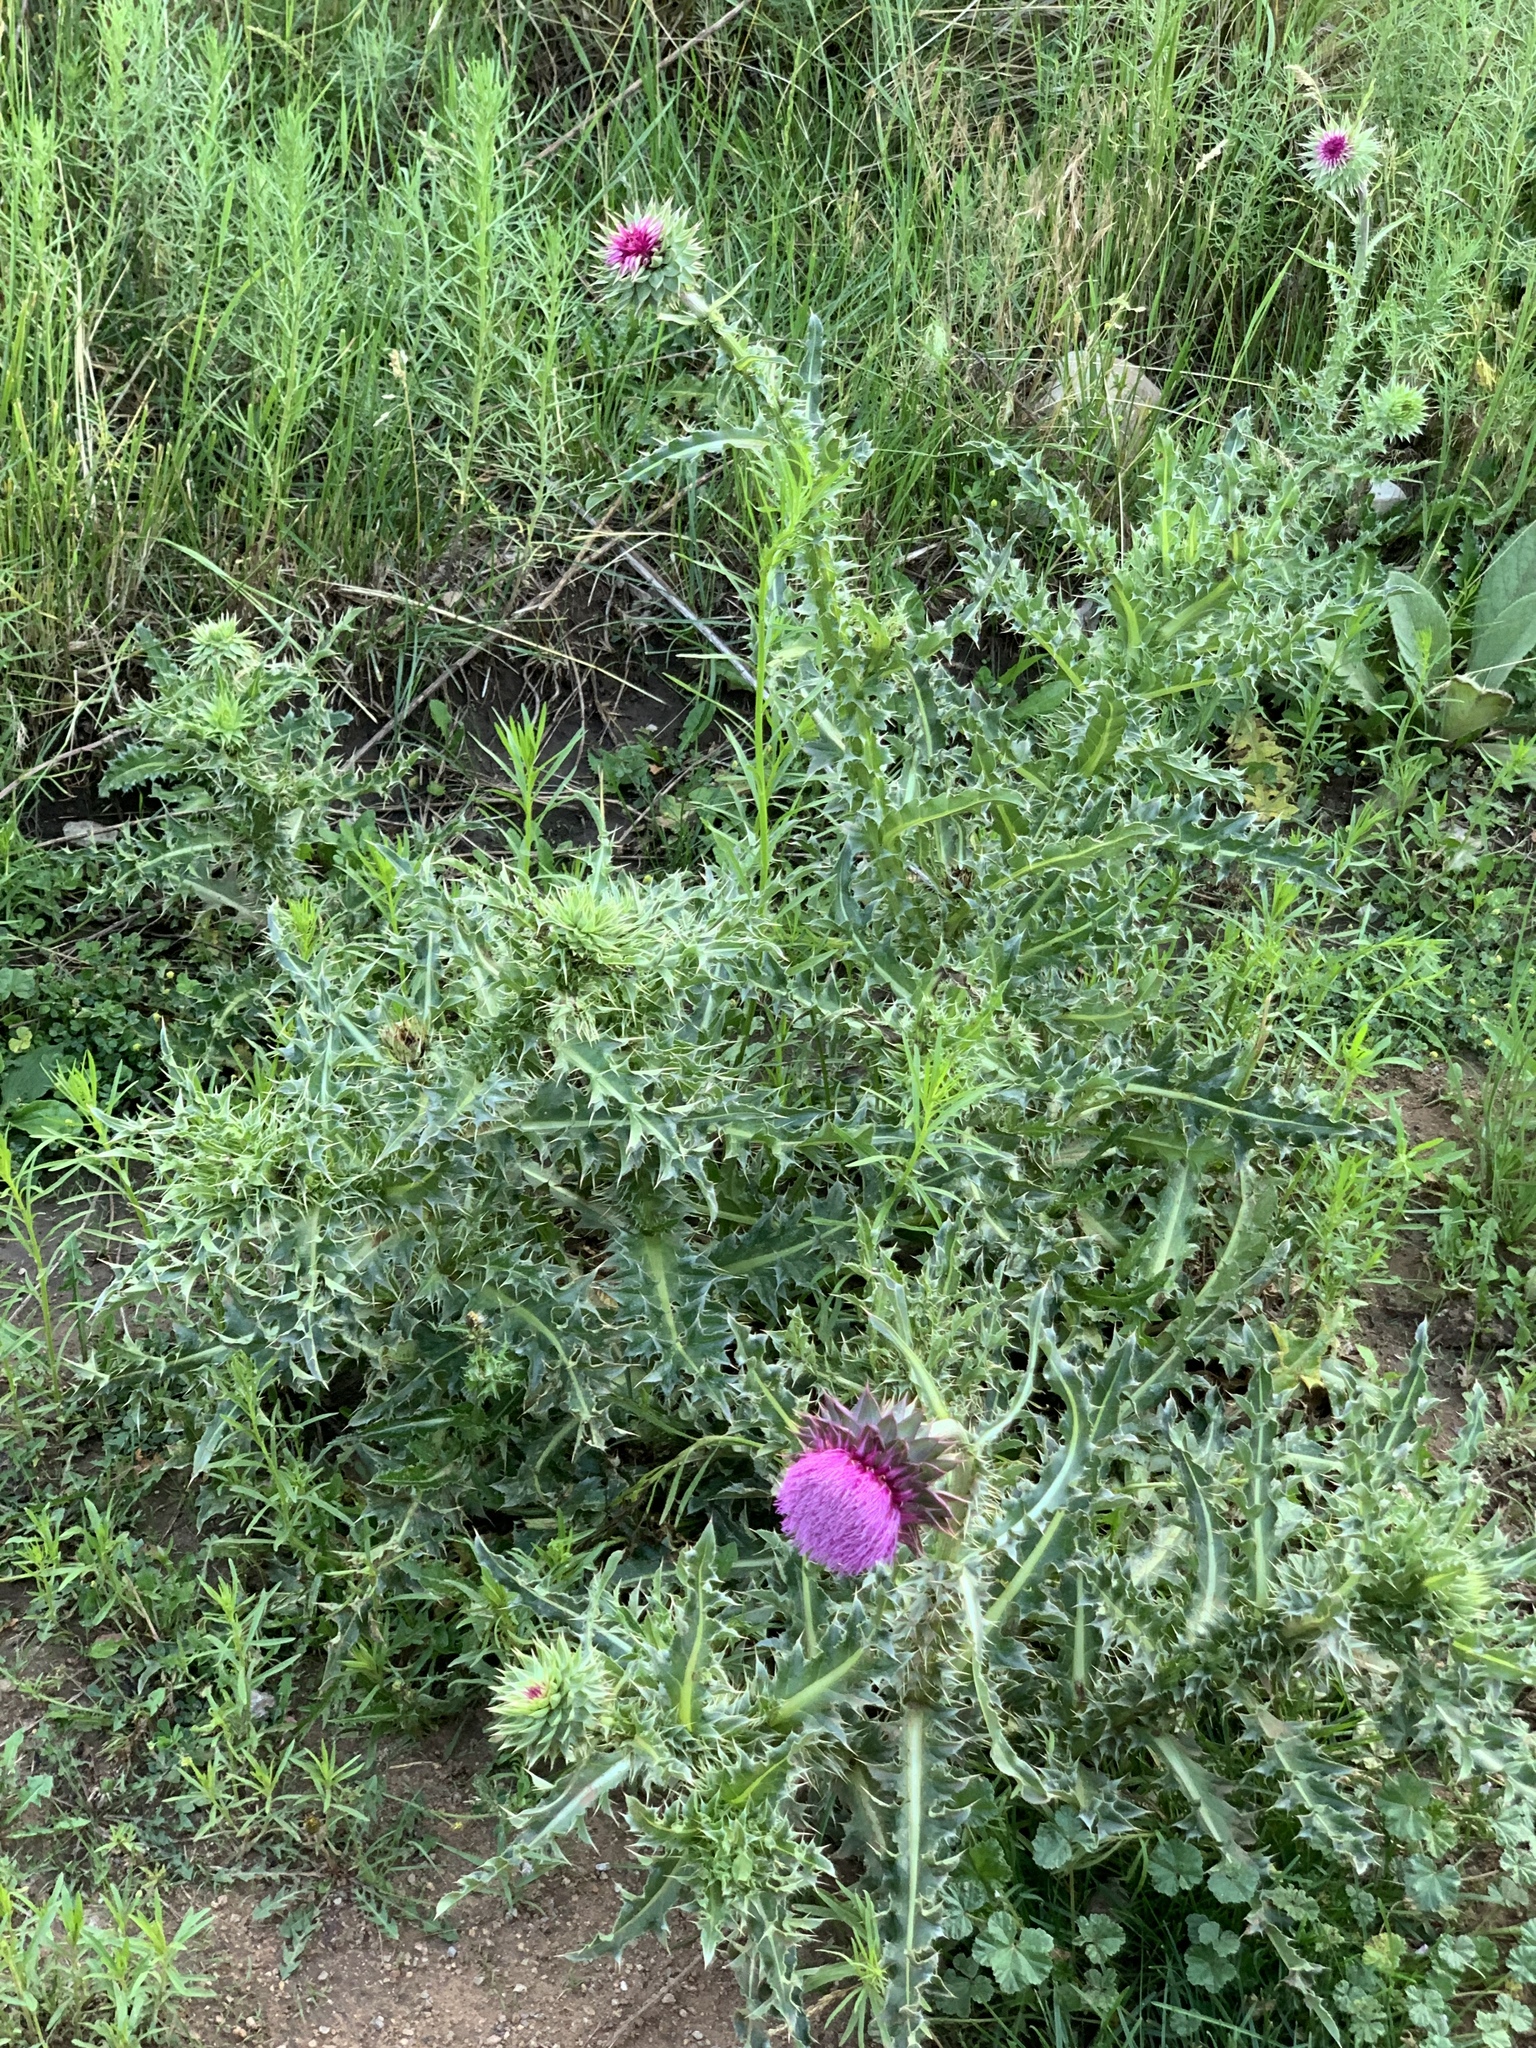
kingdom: Plantae
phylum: Tracheophyta
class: Magnoliopsida
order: Asterales
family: Asteraceae
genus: Carduus
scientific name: Carduus nutans
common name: Musk thistle
